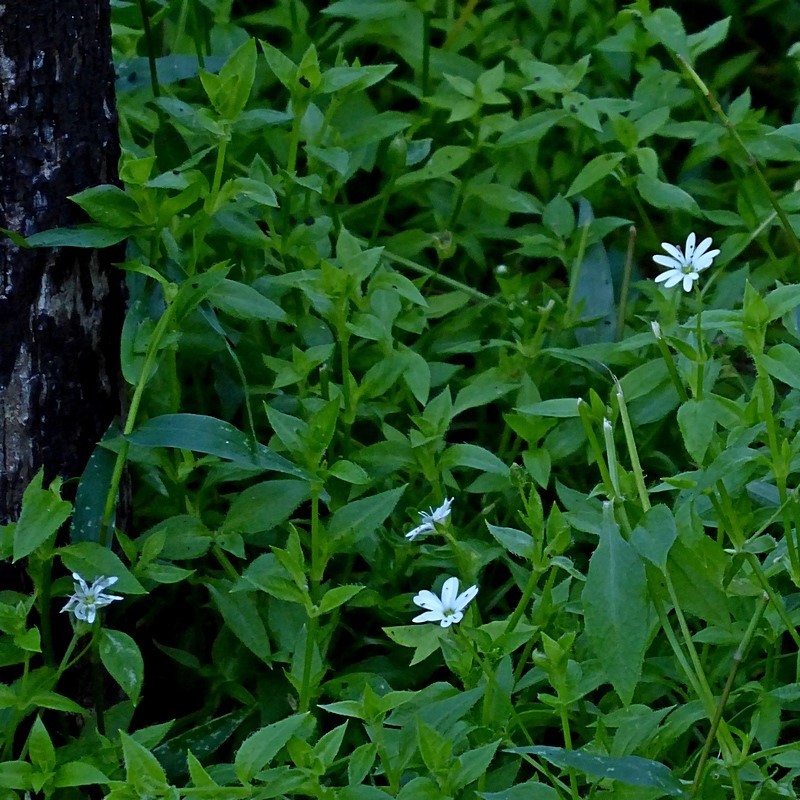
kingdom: Plantae
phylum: Tracheophyta
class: Magnoliopsida
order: Caryophyllales
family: Caryophyllaceae
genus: Stellaria
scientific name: Stellaria flaccida
